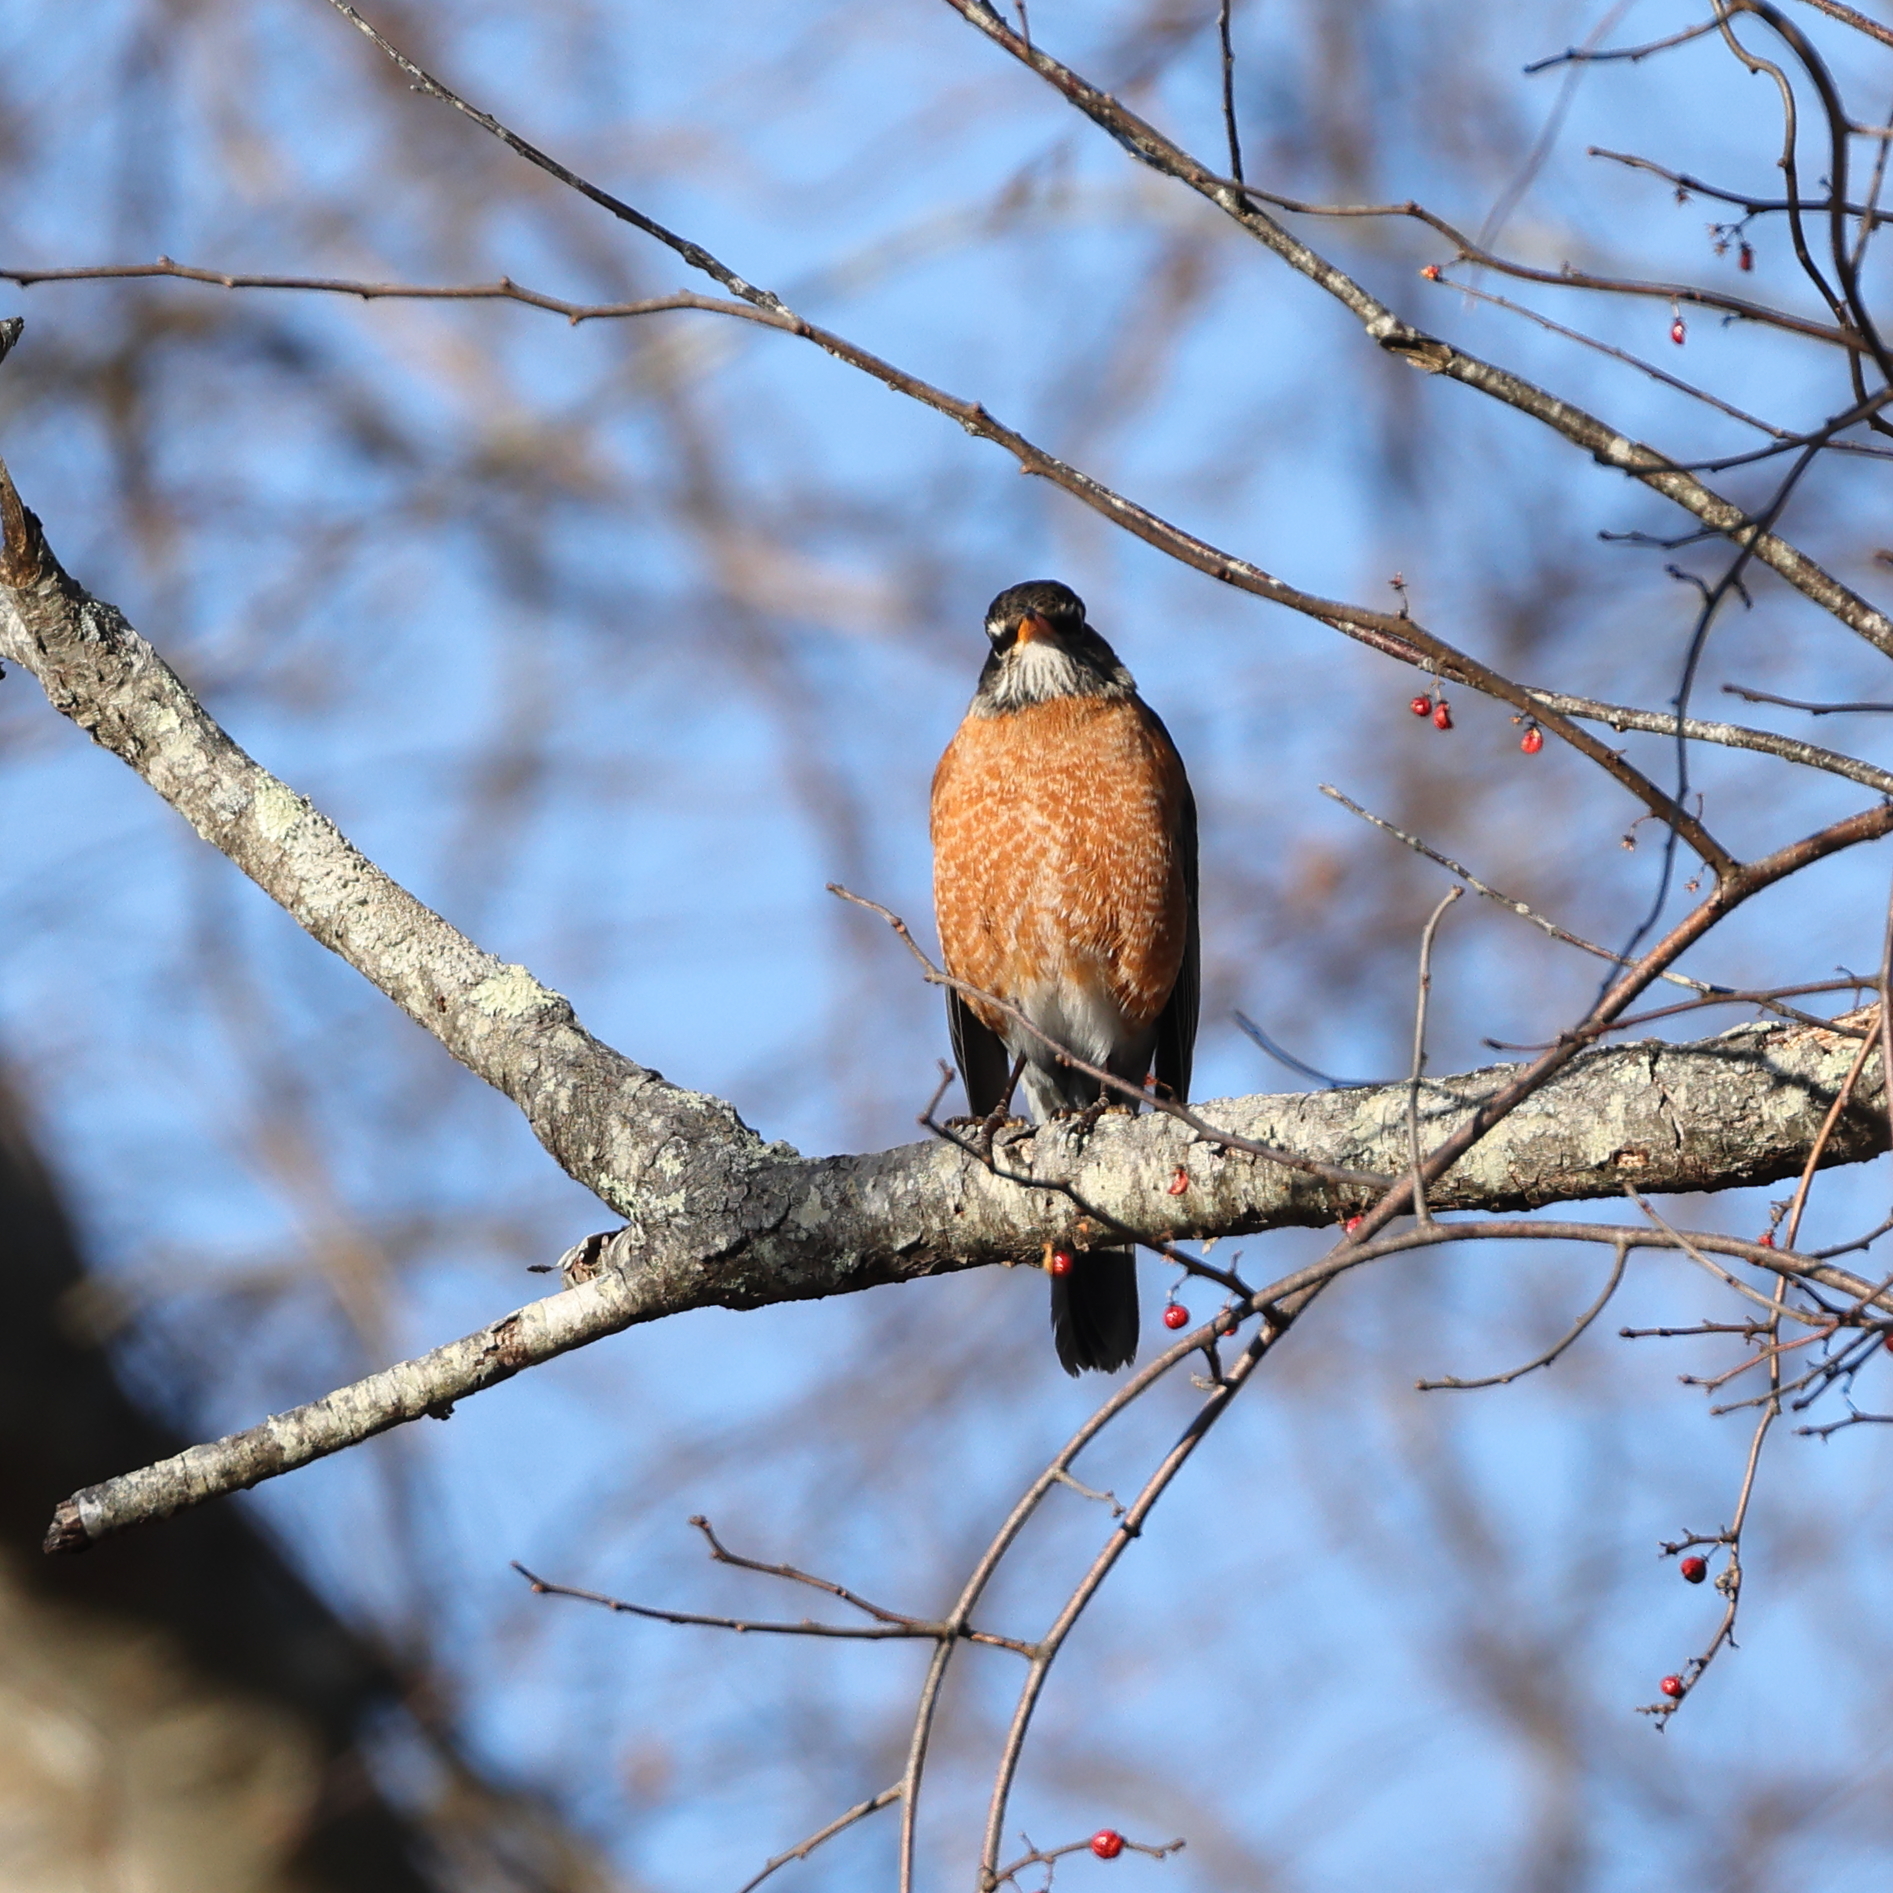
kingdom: Animalia
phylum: Chordata
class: Aves
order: Passeriformes
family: Turdidae
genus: Turdus
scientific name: Turdus migratorius
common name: American robin
